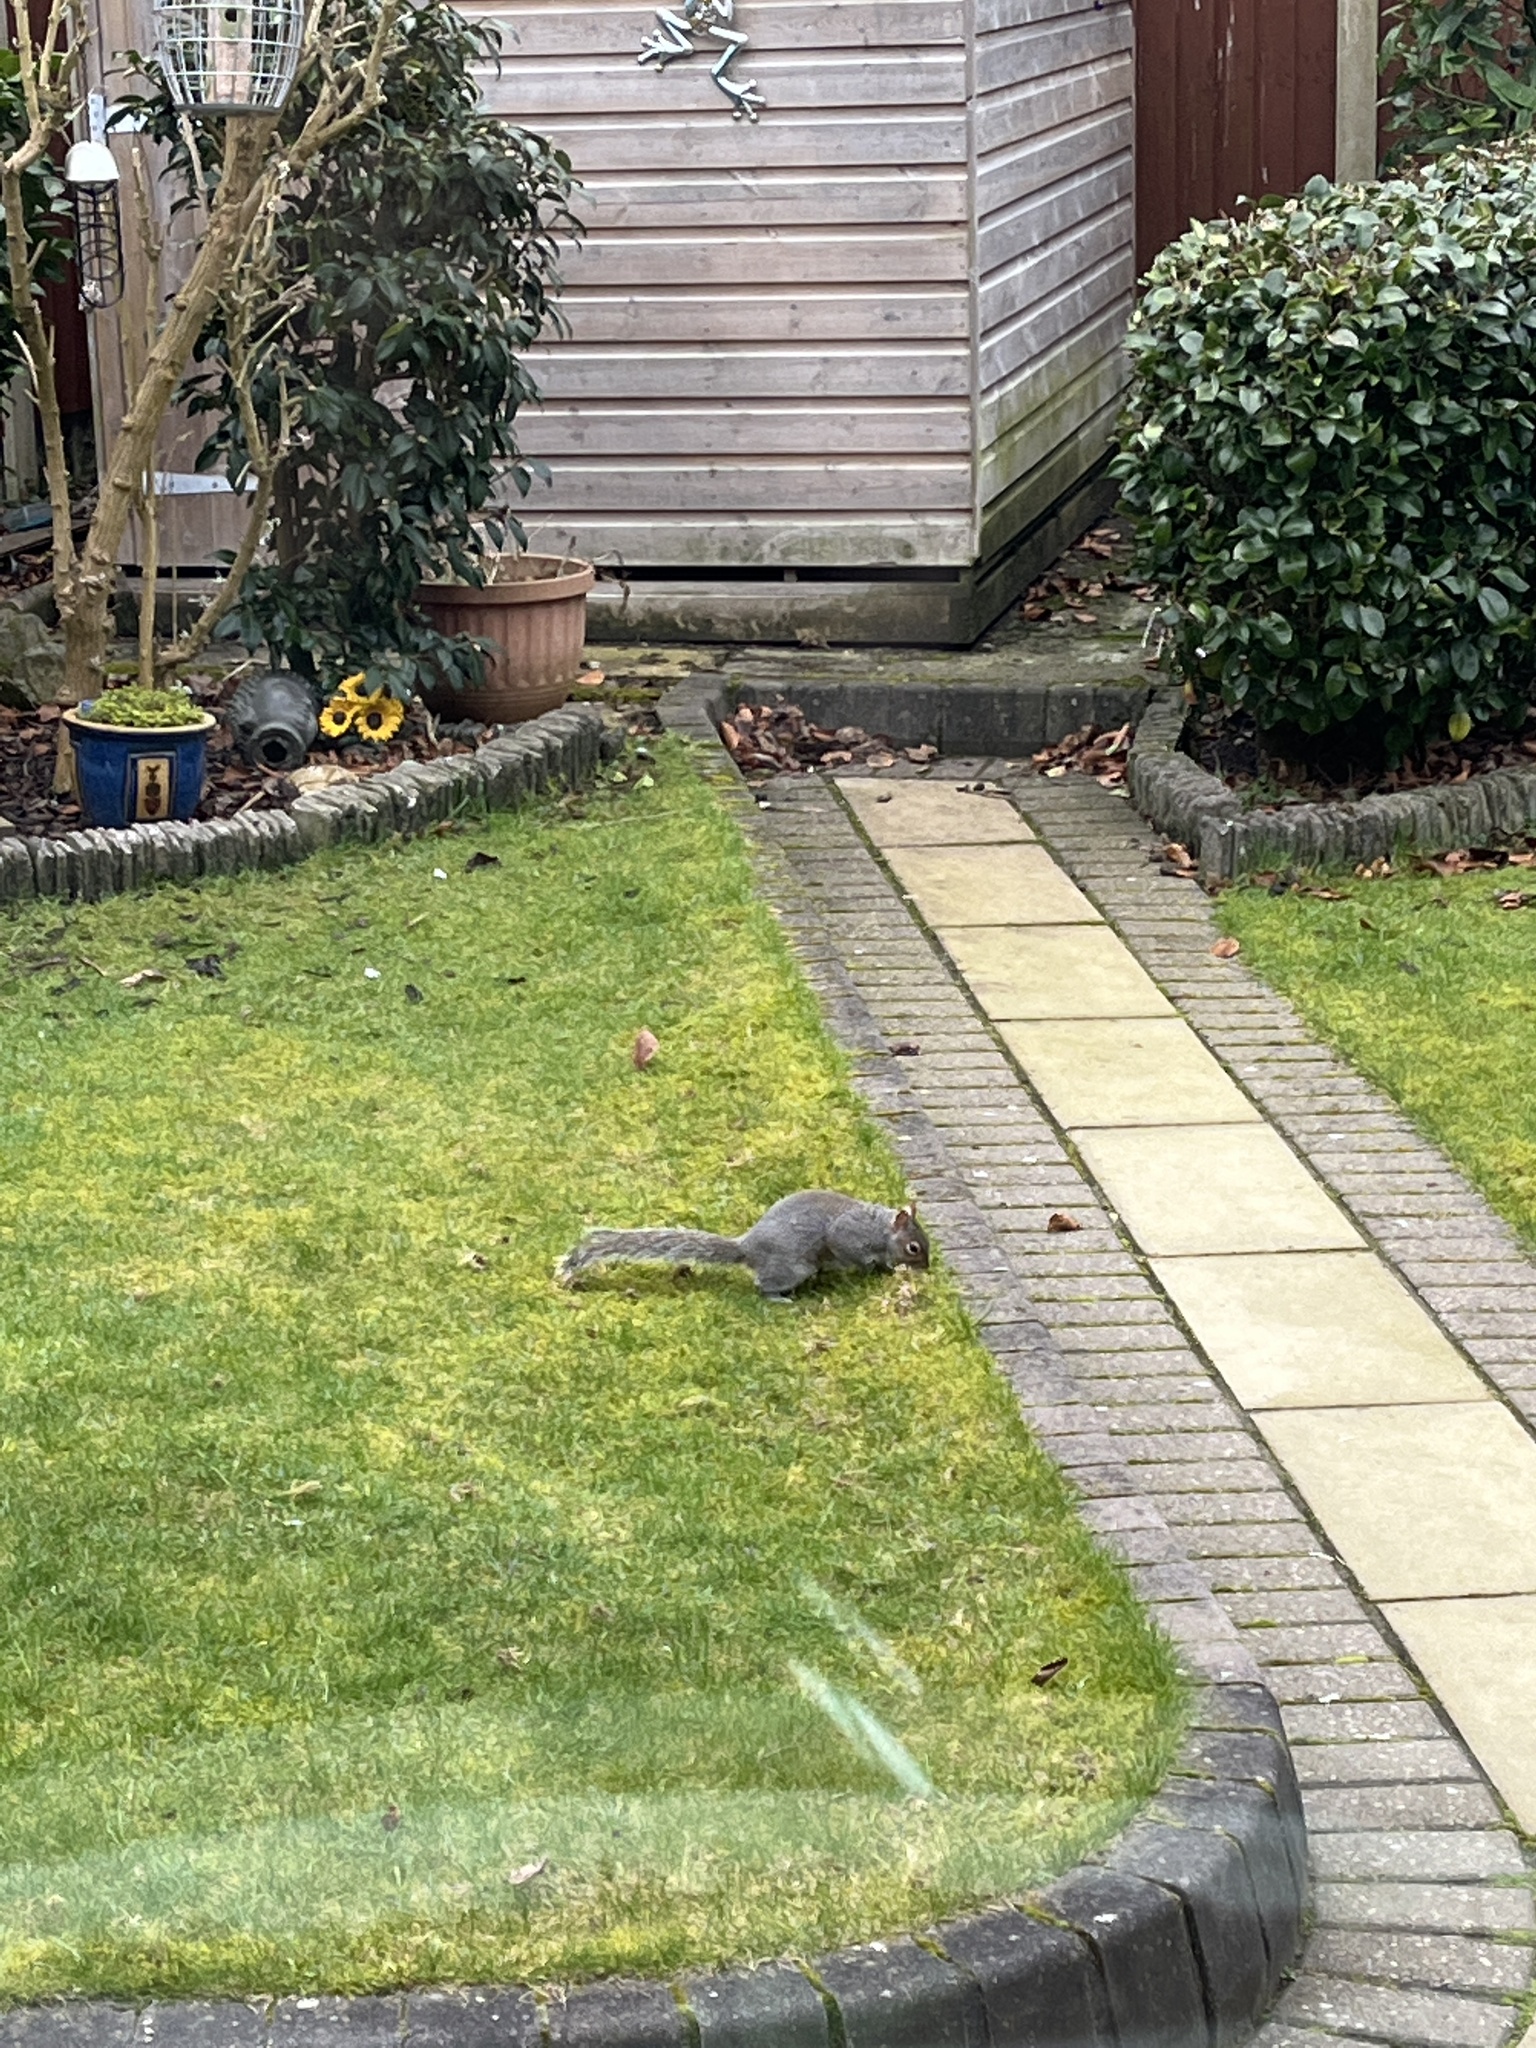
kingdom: Animalia
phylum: Chordata
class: Mammalia
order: Rodentia
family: Sciuridae
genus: Sciurus
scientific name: Sciurus carolinensis
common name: Eastern gray squirrel
